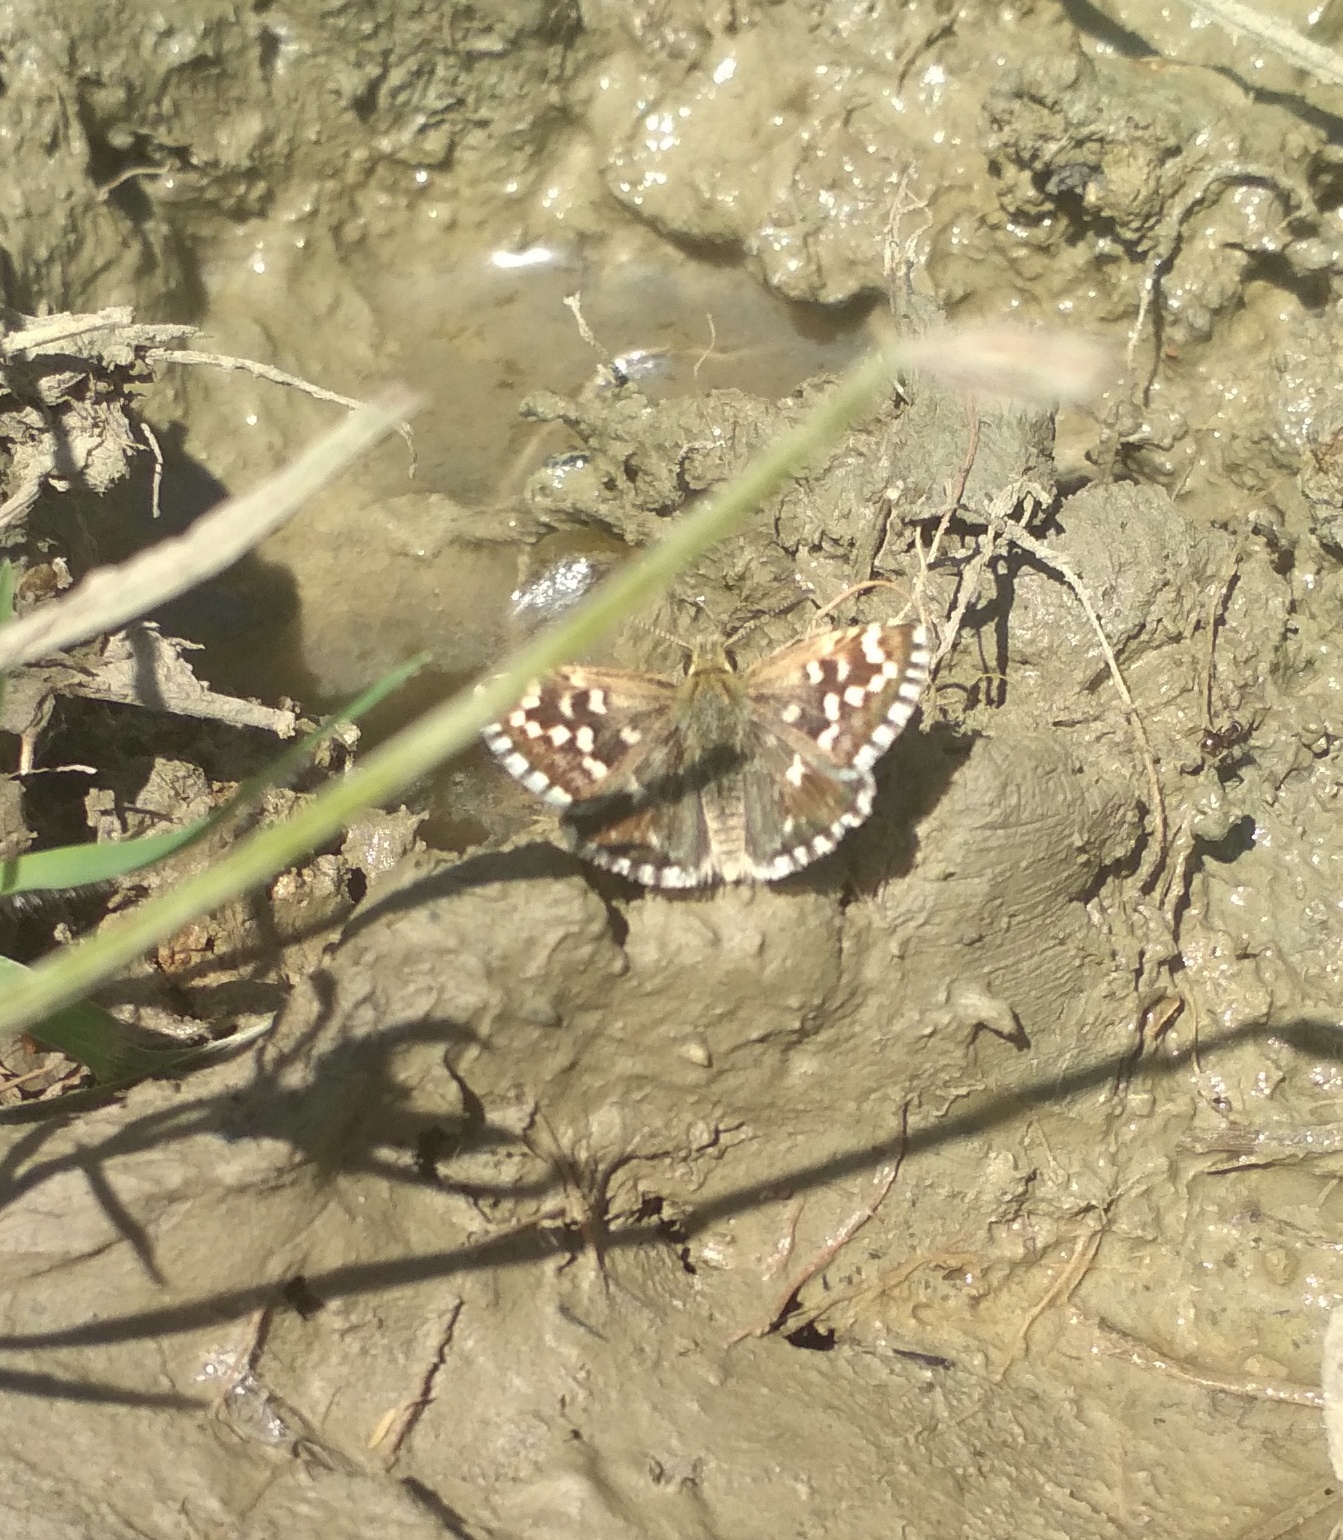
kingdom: Animalia
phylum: Arthropoda
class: Insecta
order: Lepidoptera
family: Hesperiidae
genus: Pyrgus
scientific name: Pyrgus malvoides
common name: Southern grizzled skipper
